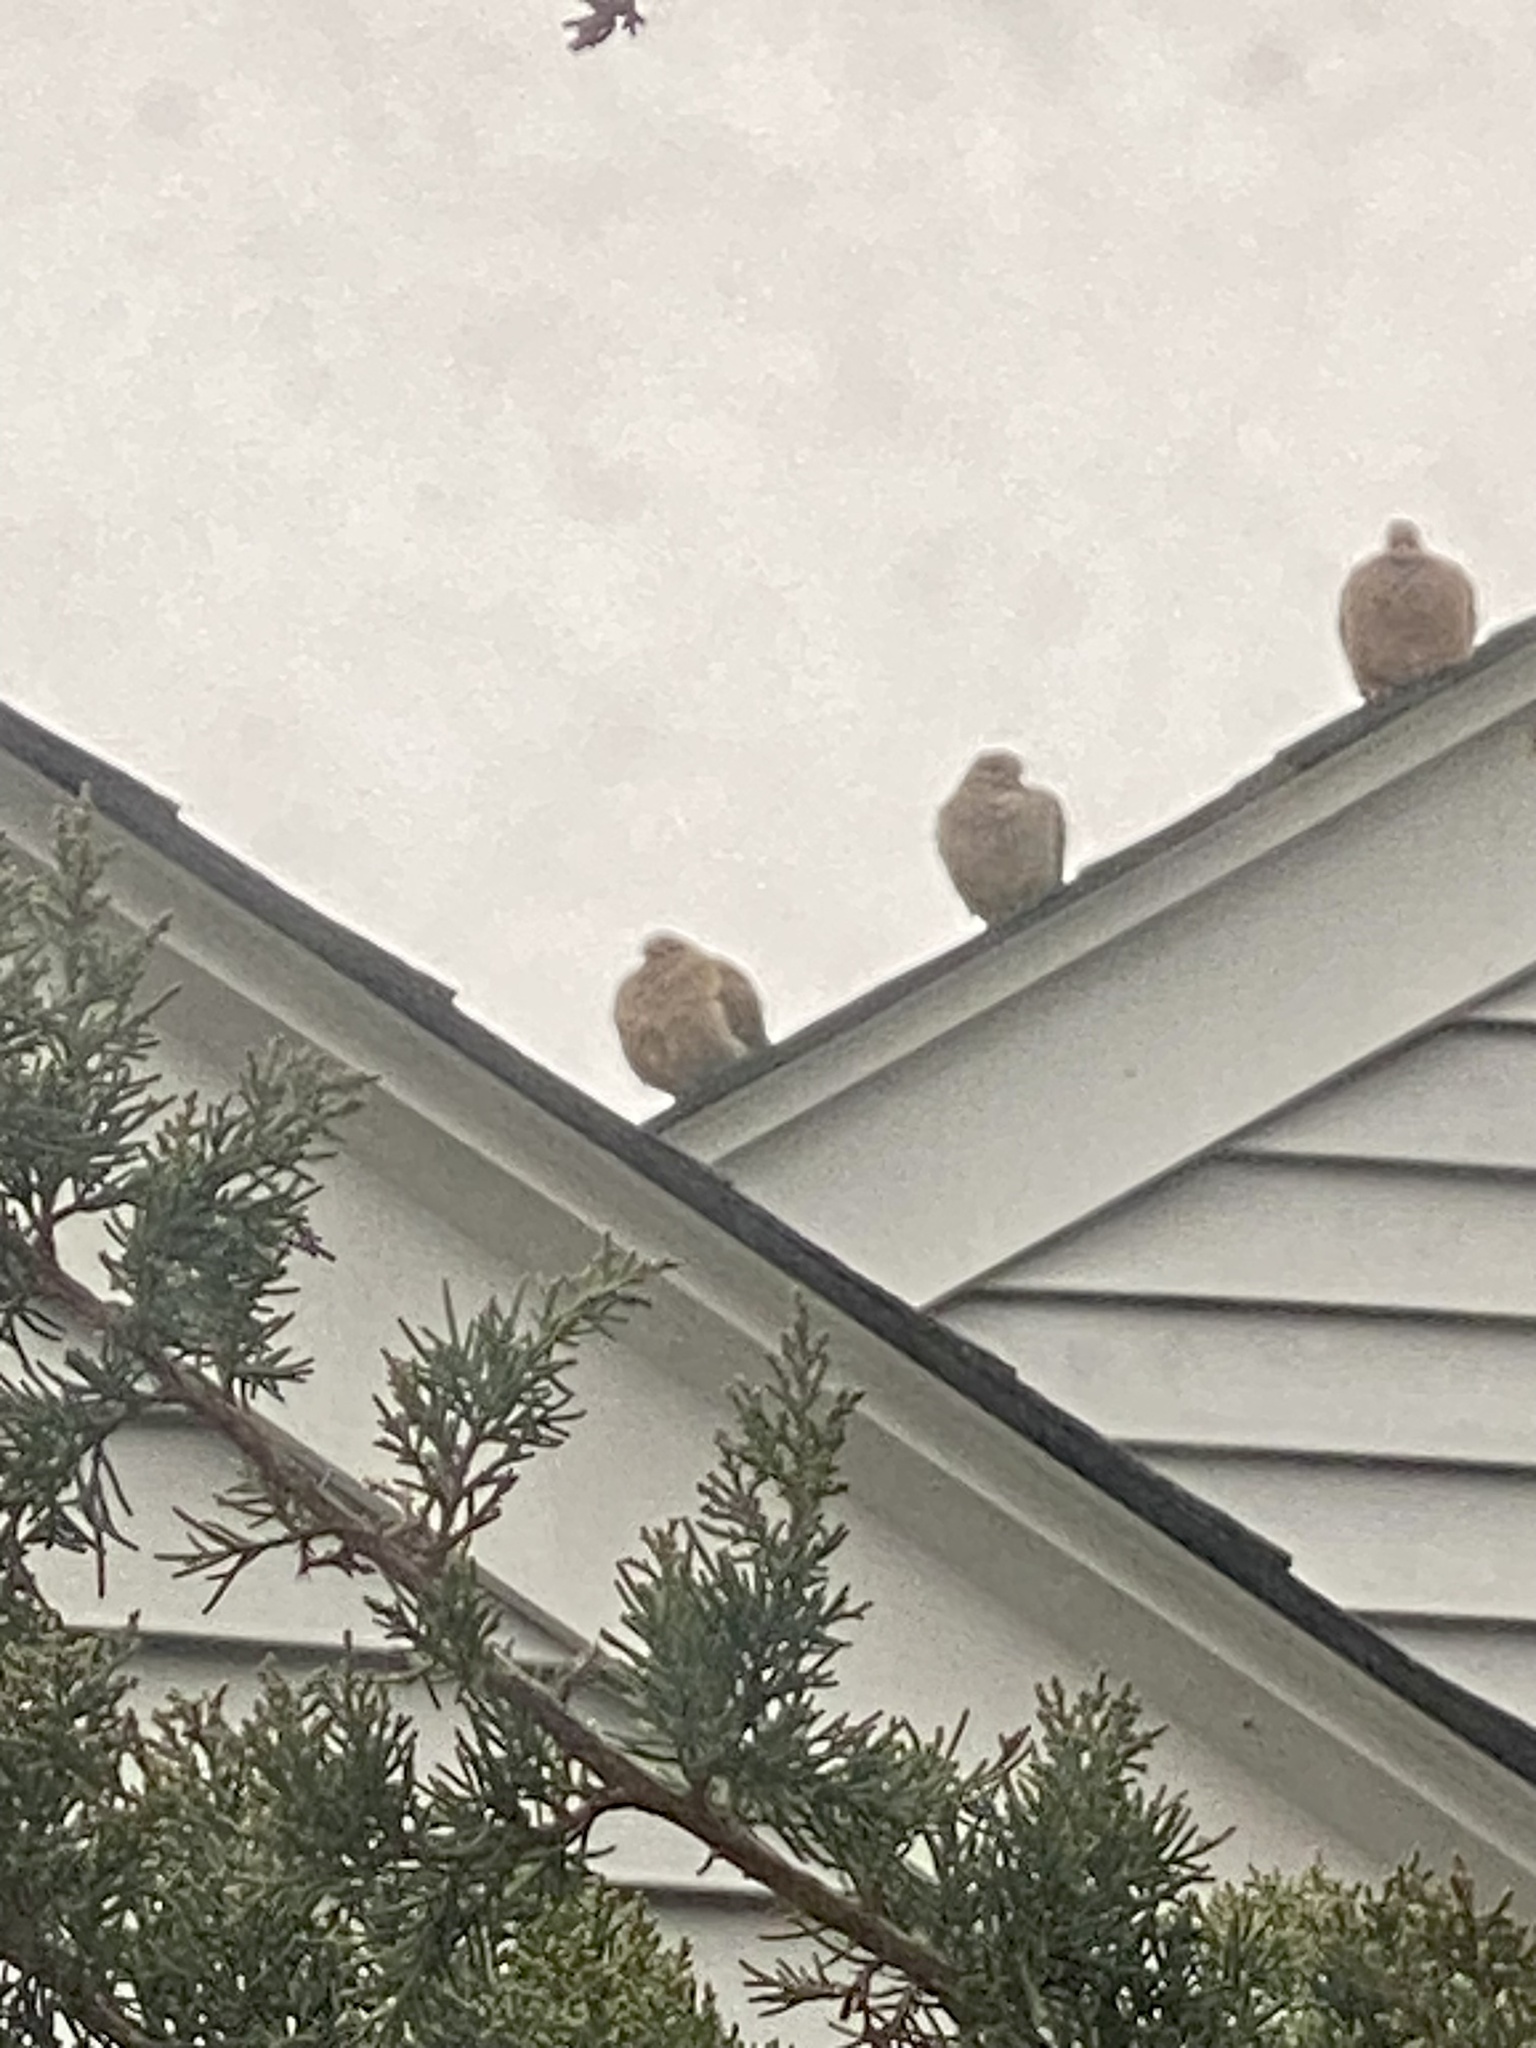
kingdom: Animalia
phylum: Chordata
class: Aves
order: Columbiformes
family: Columbidae
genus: Zenaida
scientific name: Zenaida macroura
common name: Mourning dove
